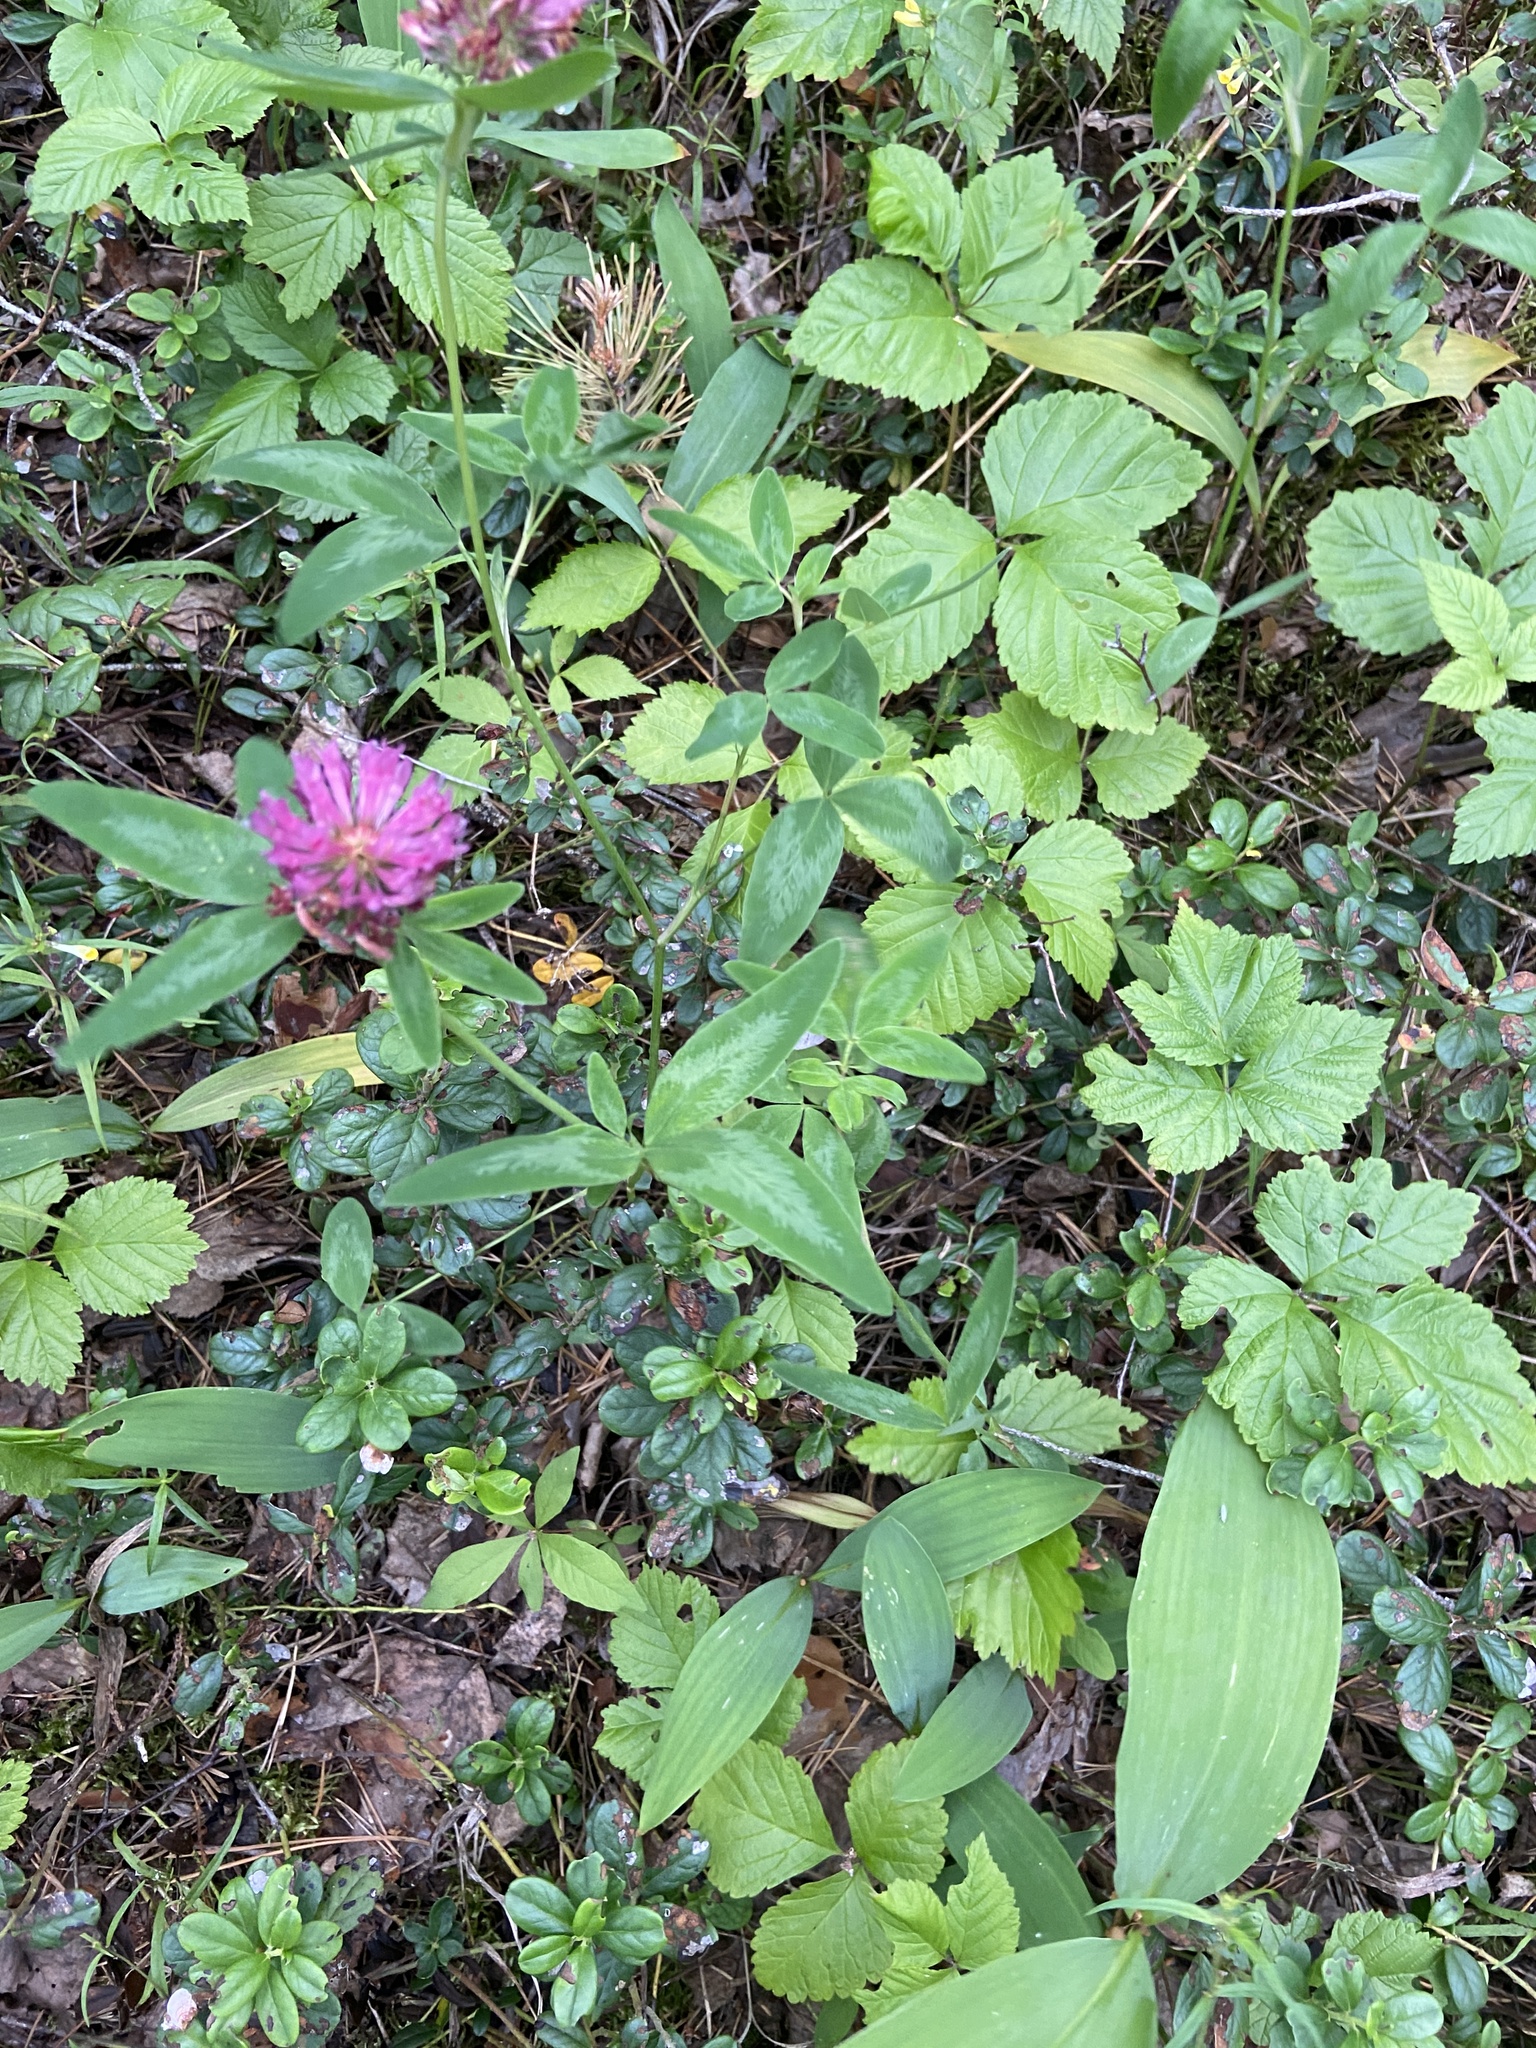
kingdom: Plantae
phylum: Tracheophyta
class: Magnoliopsida
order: Fabales
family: Fabaceae
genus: Trifolium
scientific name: Trifolium pratense
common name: Red clover
